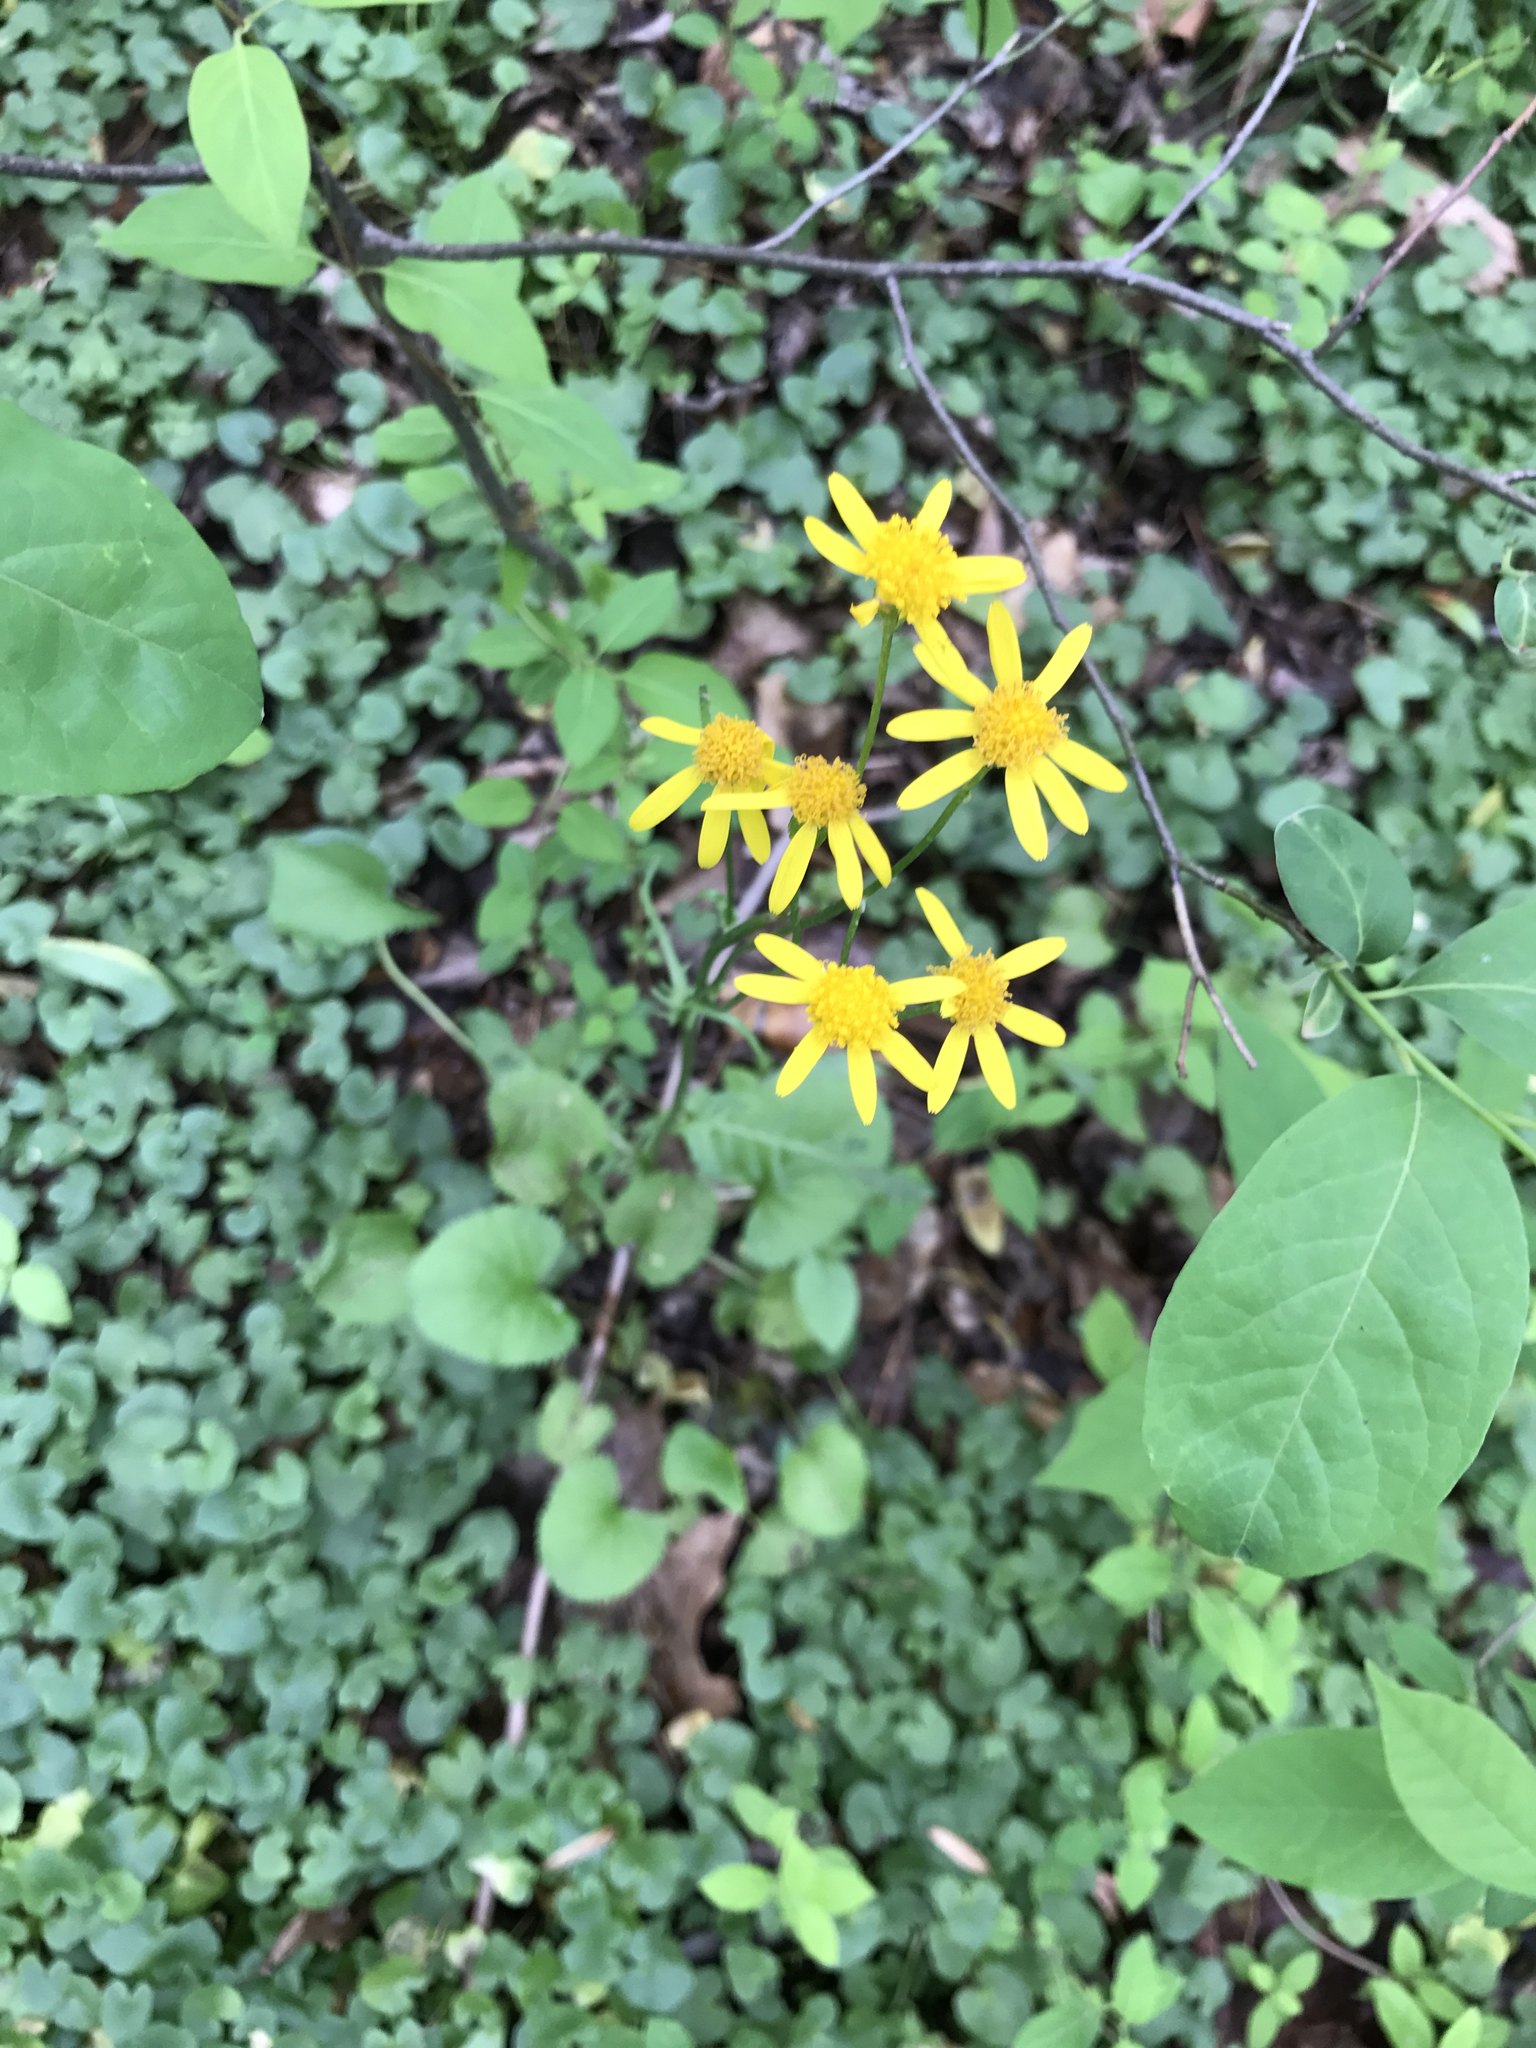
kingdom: Plantae
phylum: Tracheophyta
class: Magnoliopsida
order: Asterales
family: Asteraceae
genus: Packera
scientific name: Packera aurea
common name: Golden groundsel
